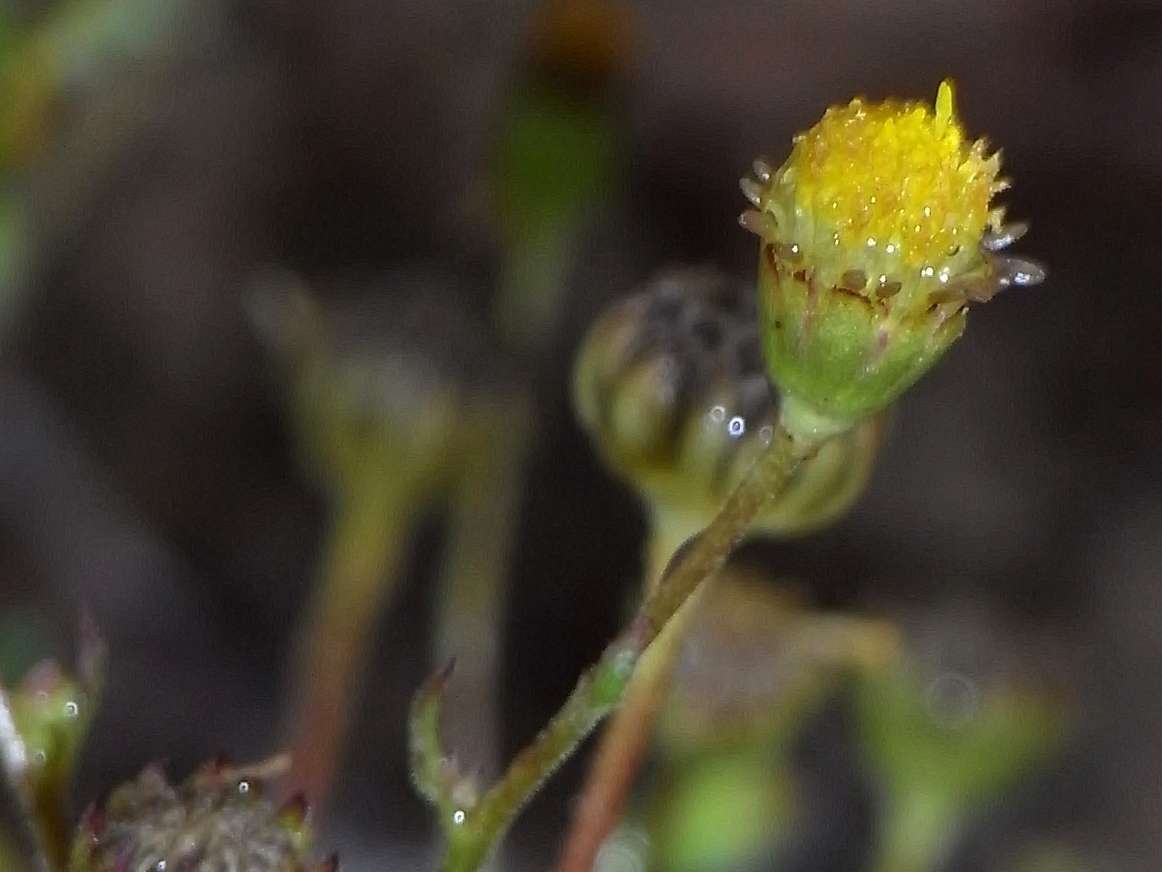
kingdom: Plantae
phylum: Tracheophyta
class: Magnoliopsida
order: Asterales
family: Asteraceae
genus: Brachyscome
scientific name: Brachyscome ciliaris
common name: Variable daisy
